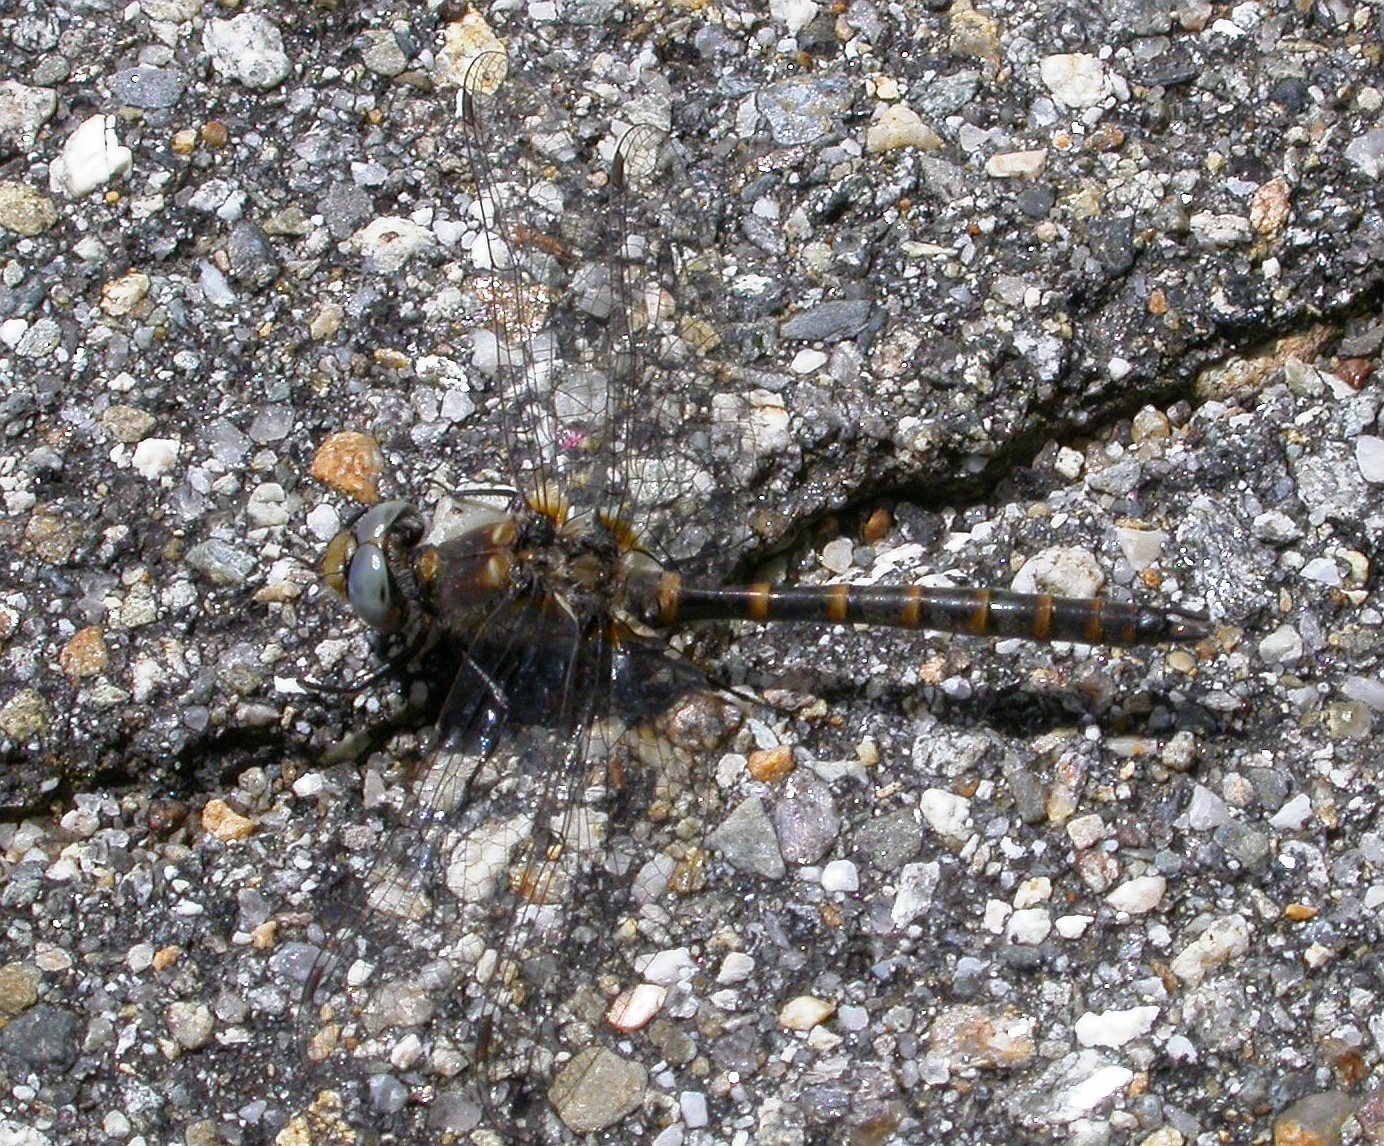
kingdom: Animalia
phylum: Arthropoda
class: Insecta
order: Odonata
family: Corduliidae
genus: Williamsonia
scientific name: Williamsonia lintneri
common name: Ringed boghaunter
